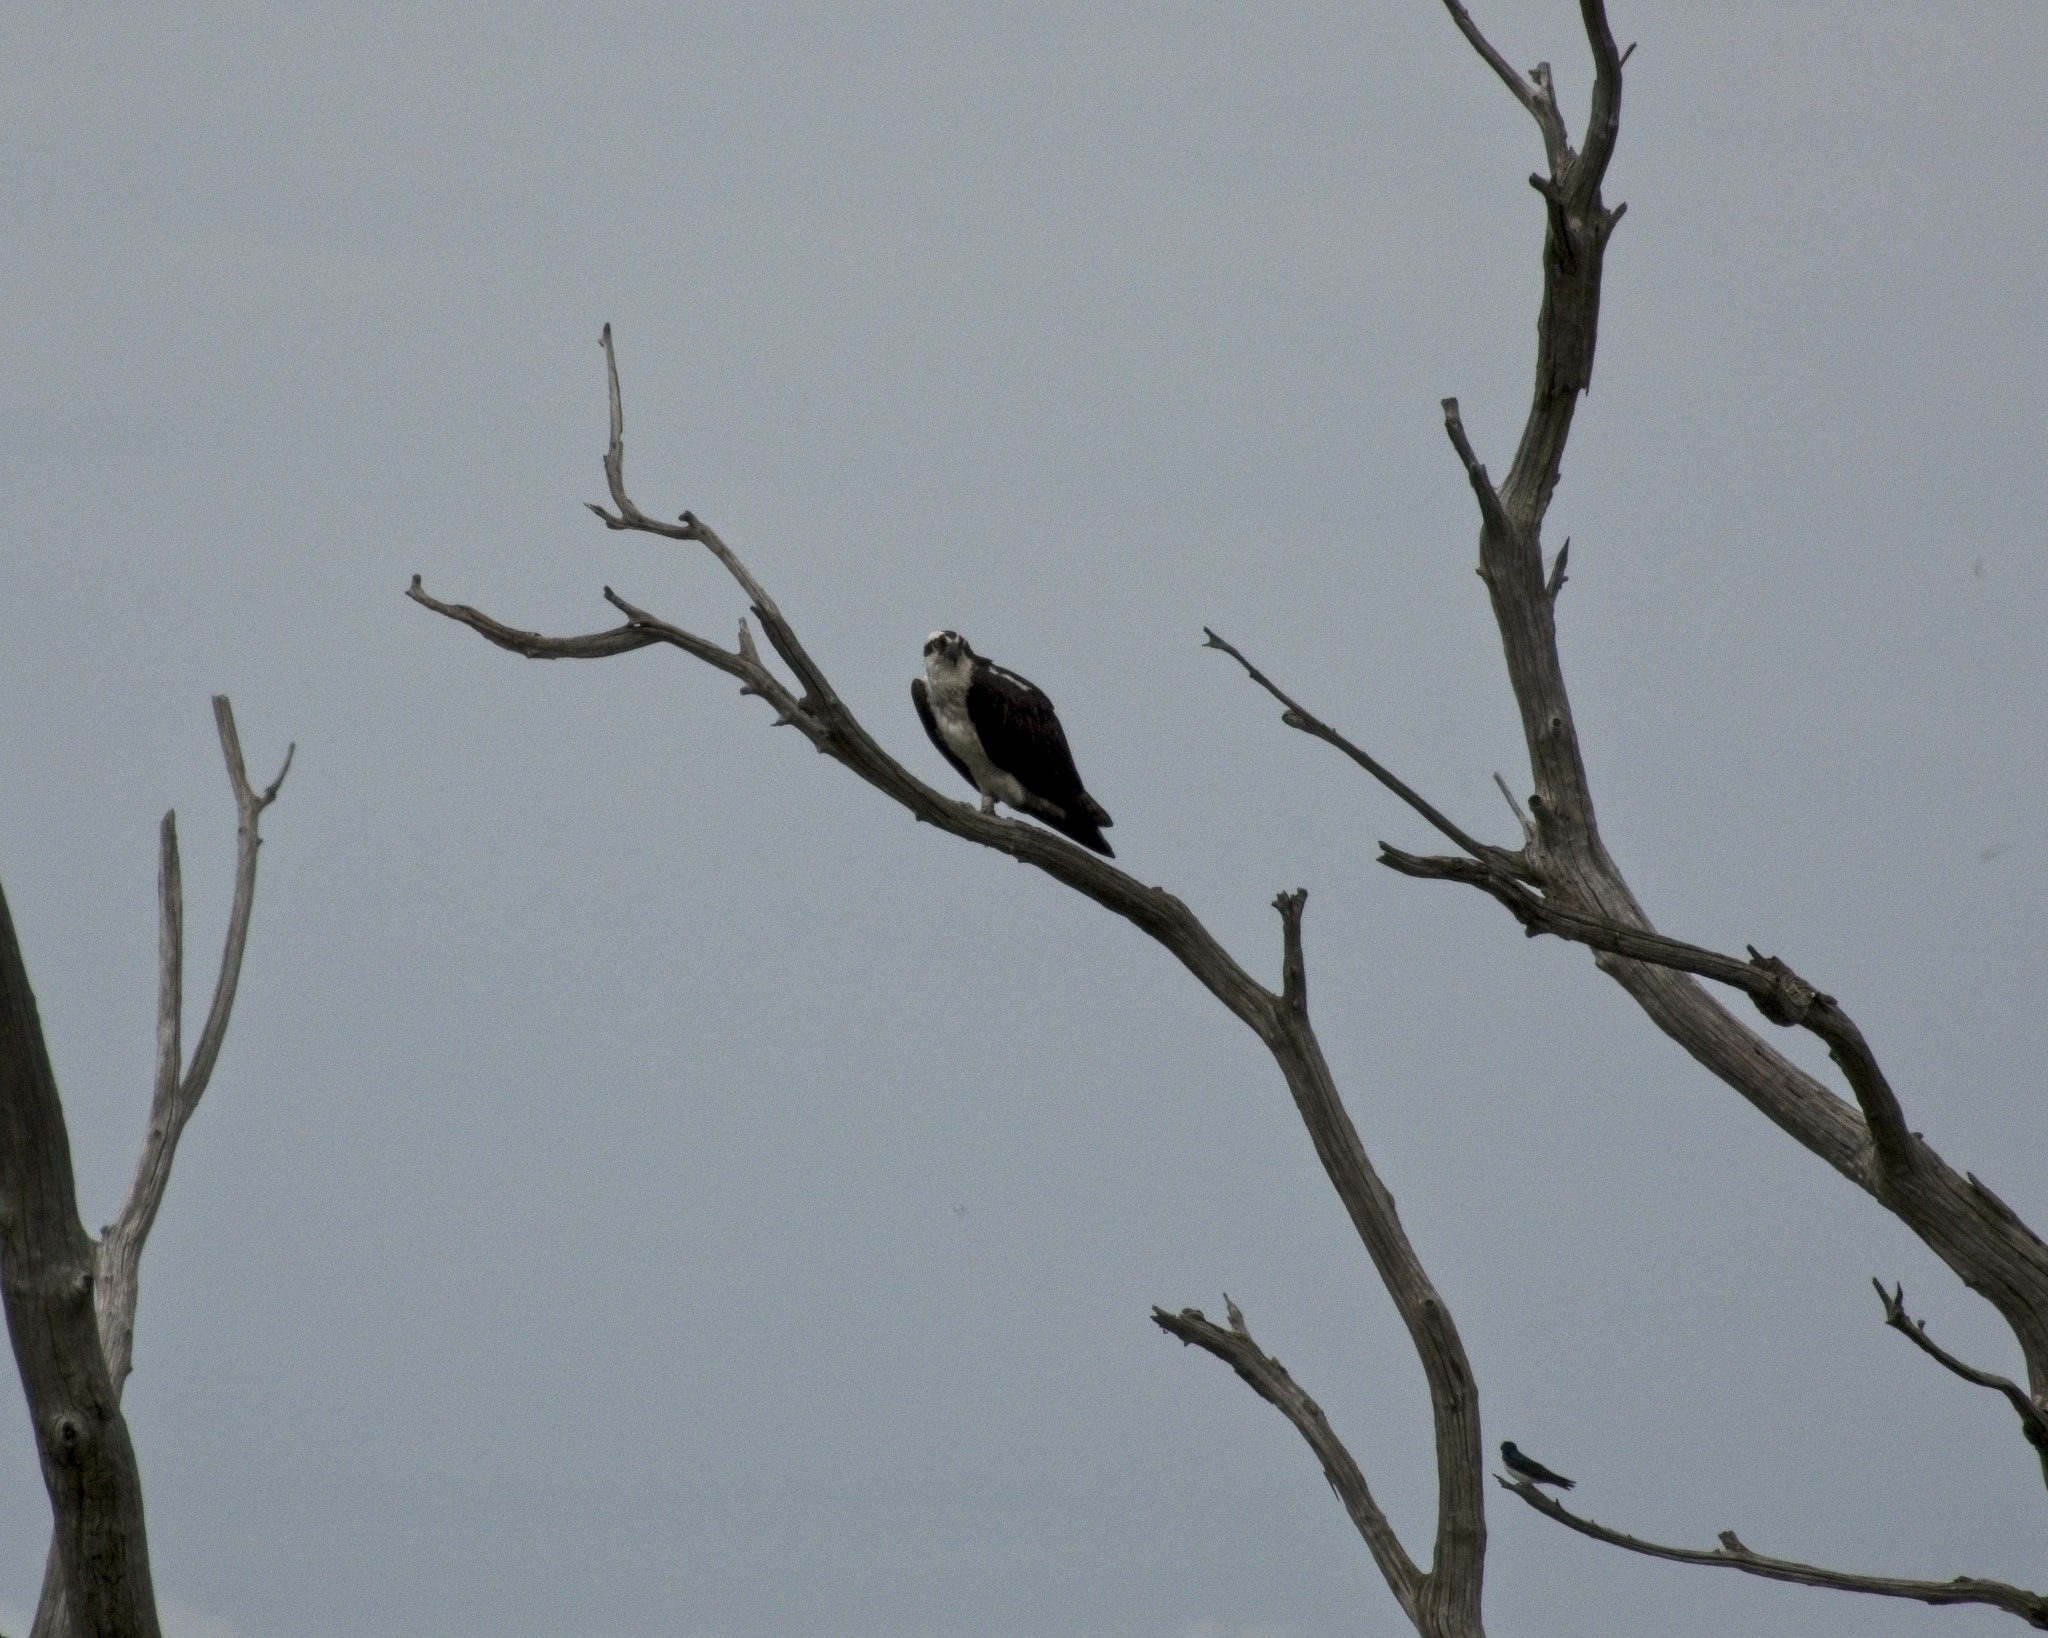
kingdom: Animalia
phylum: Chordata
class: Aves
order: Accipitriformes
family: Pandionidae
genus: Pandion
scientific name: Pandion haliaetus
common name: Osprey
